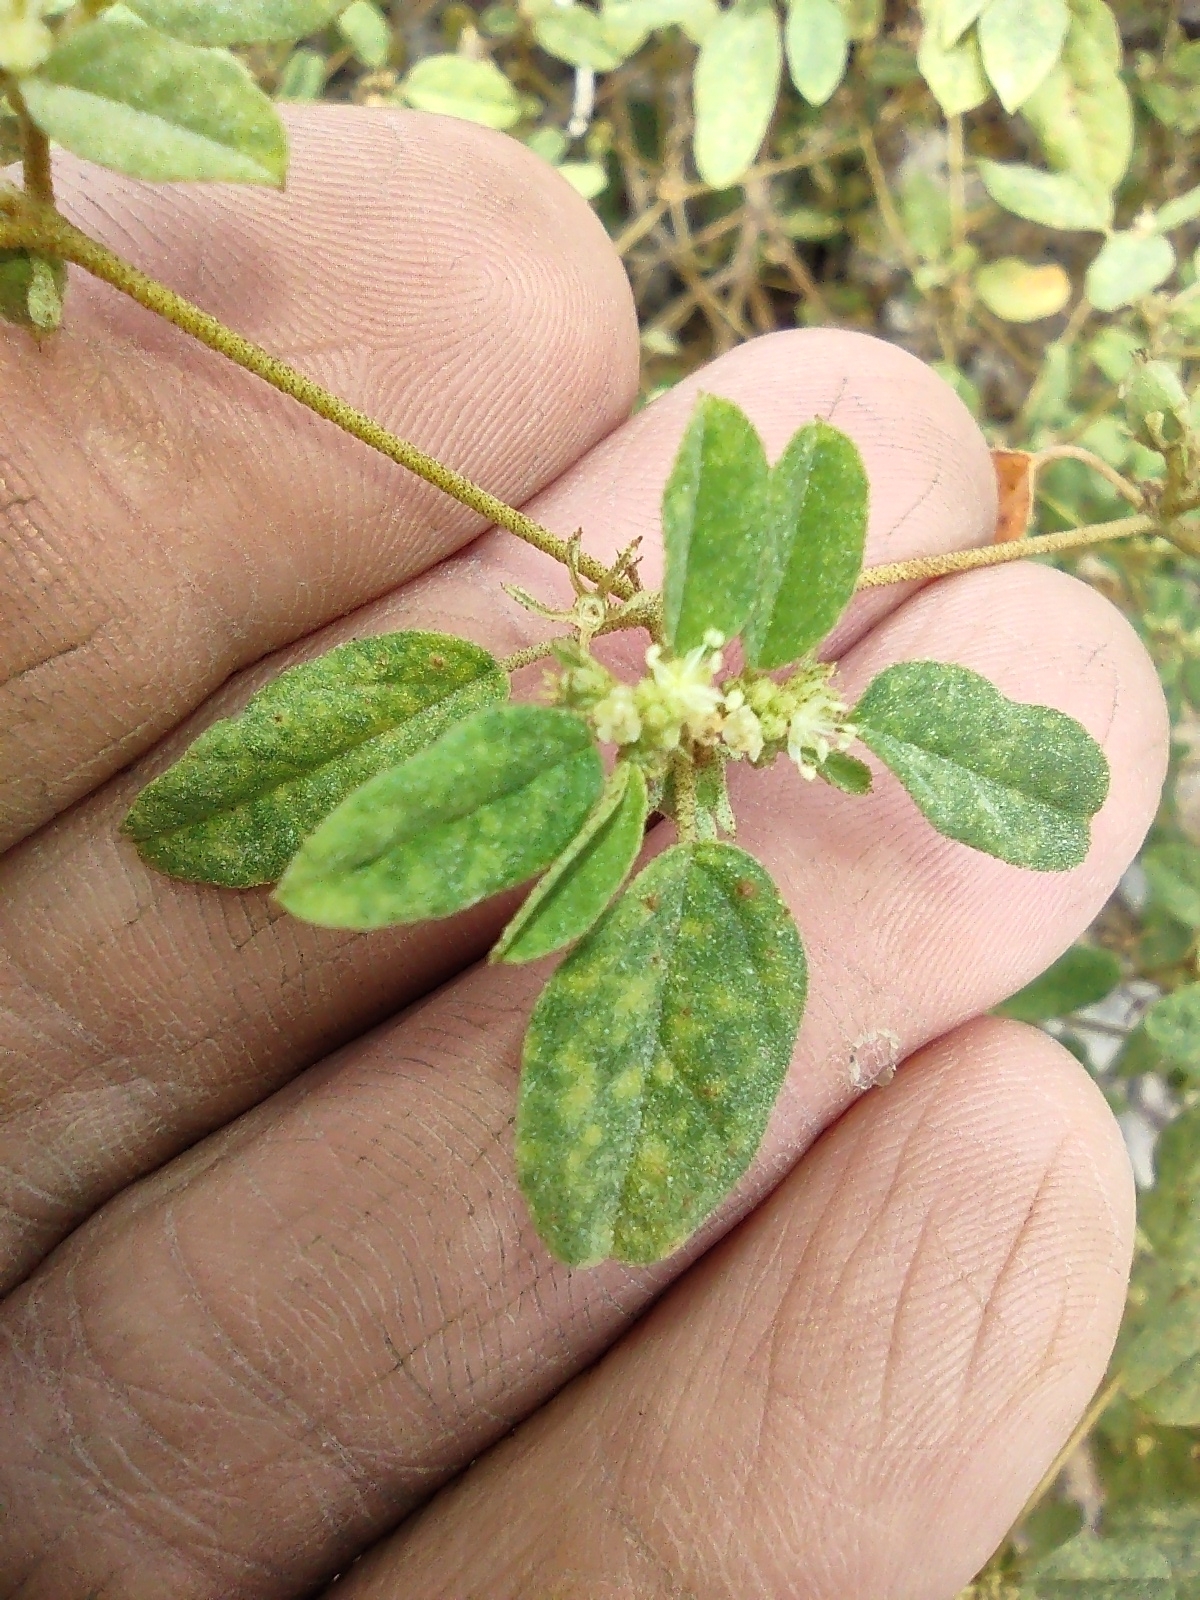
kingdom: Plantae
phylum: Tracheophyta
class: Magnoliopsida
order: Malpighiales
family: Euphorbiaceae
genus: Croton
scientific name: Croton monanthogynus
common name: One-seed croton
